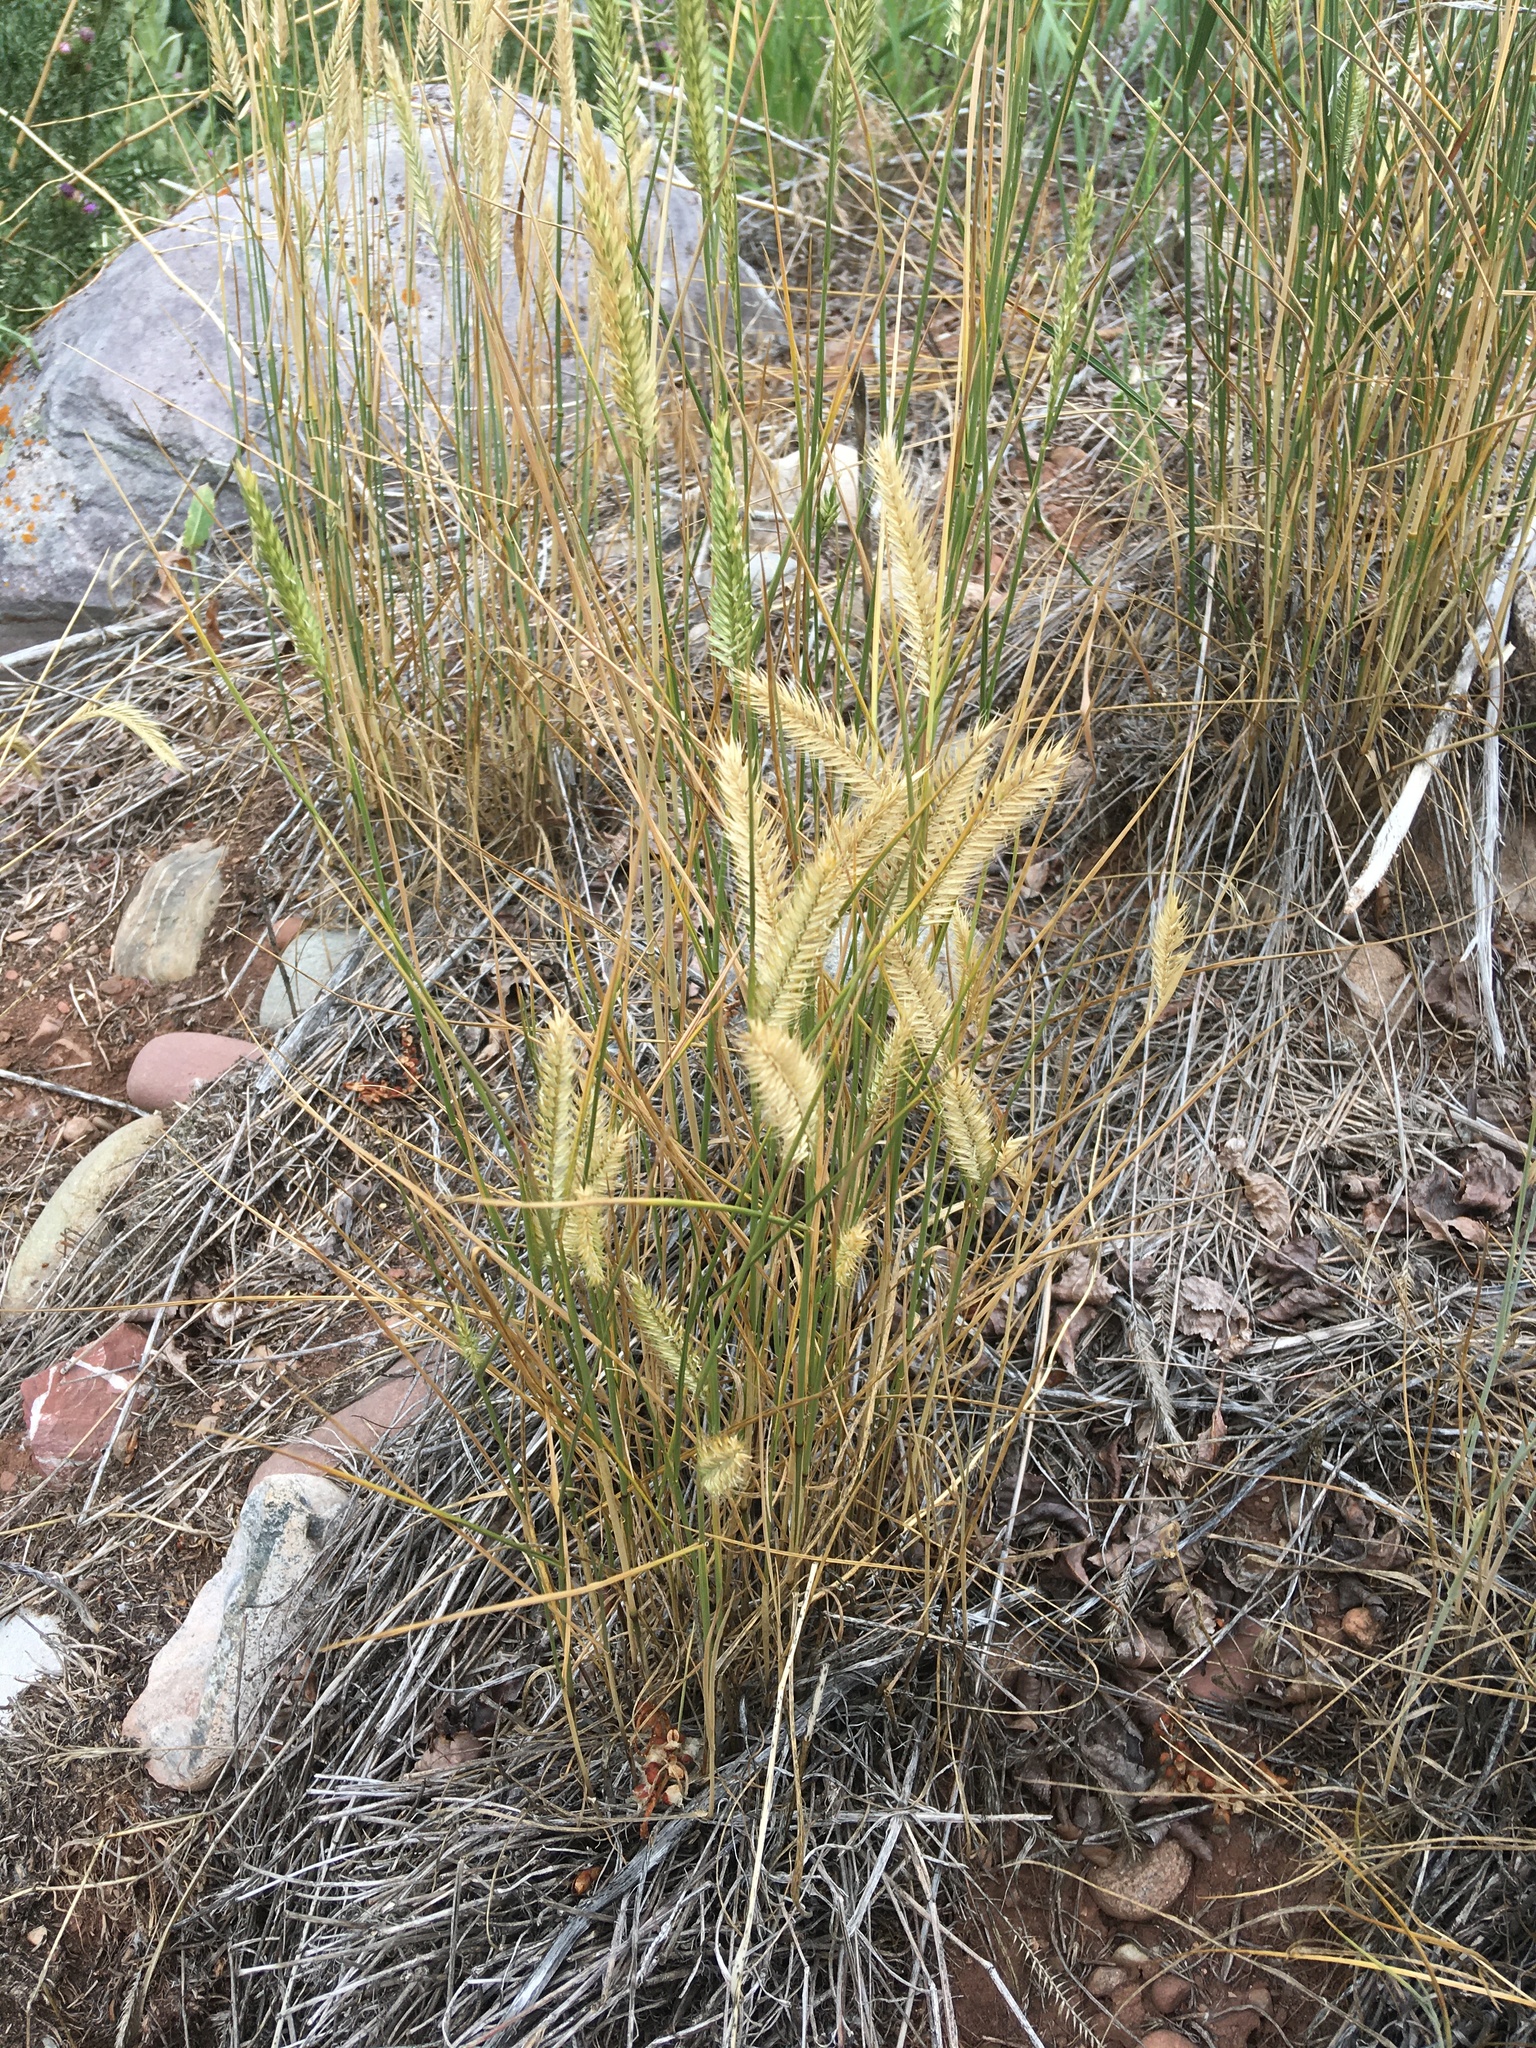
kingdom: Plantae
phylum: Tracheophyta
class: Liliopsida
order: Poales
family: Poaceae
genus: Agropyron
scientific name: Agropyron cristatum
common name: Crested wheatgrass
